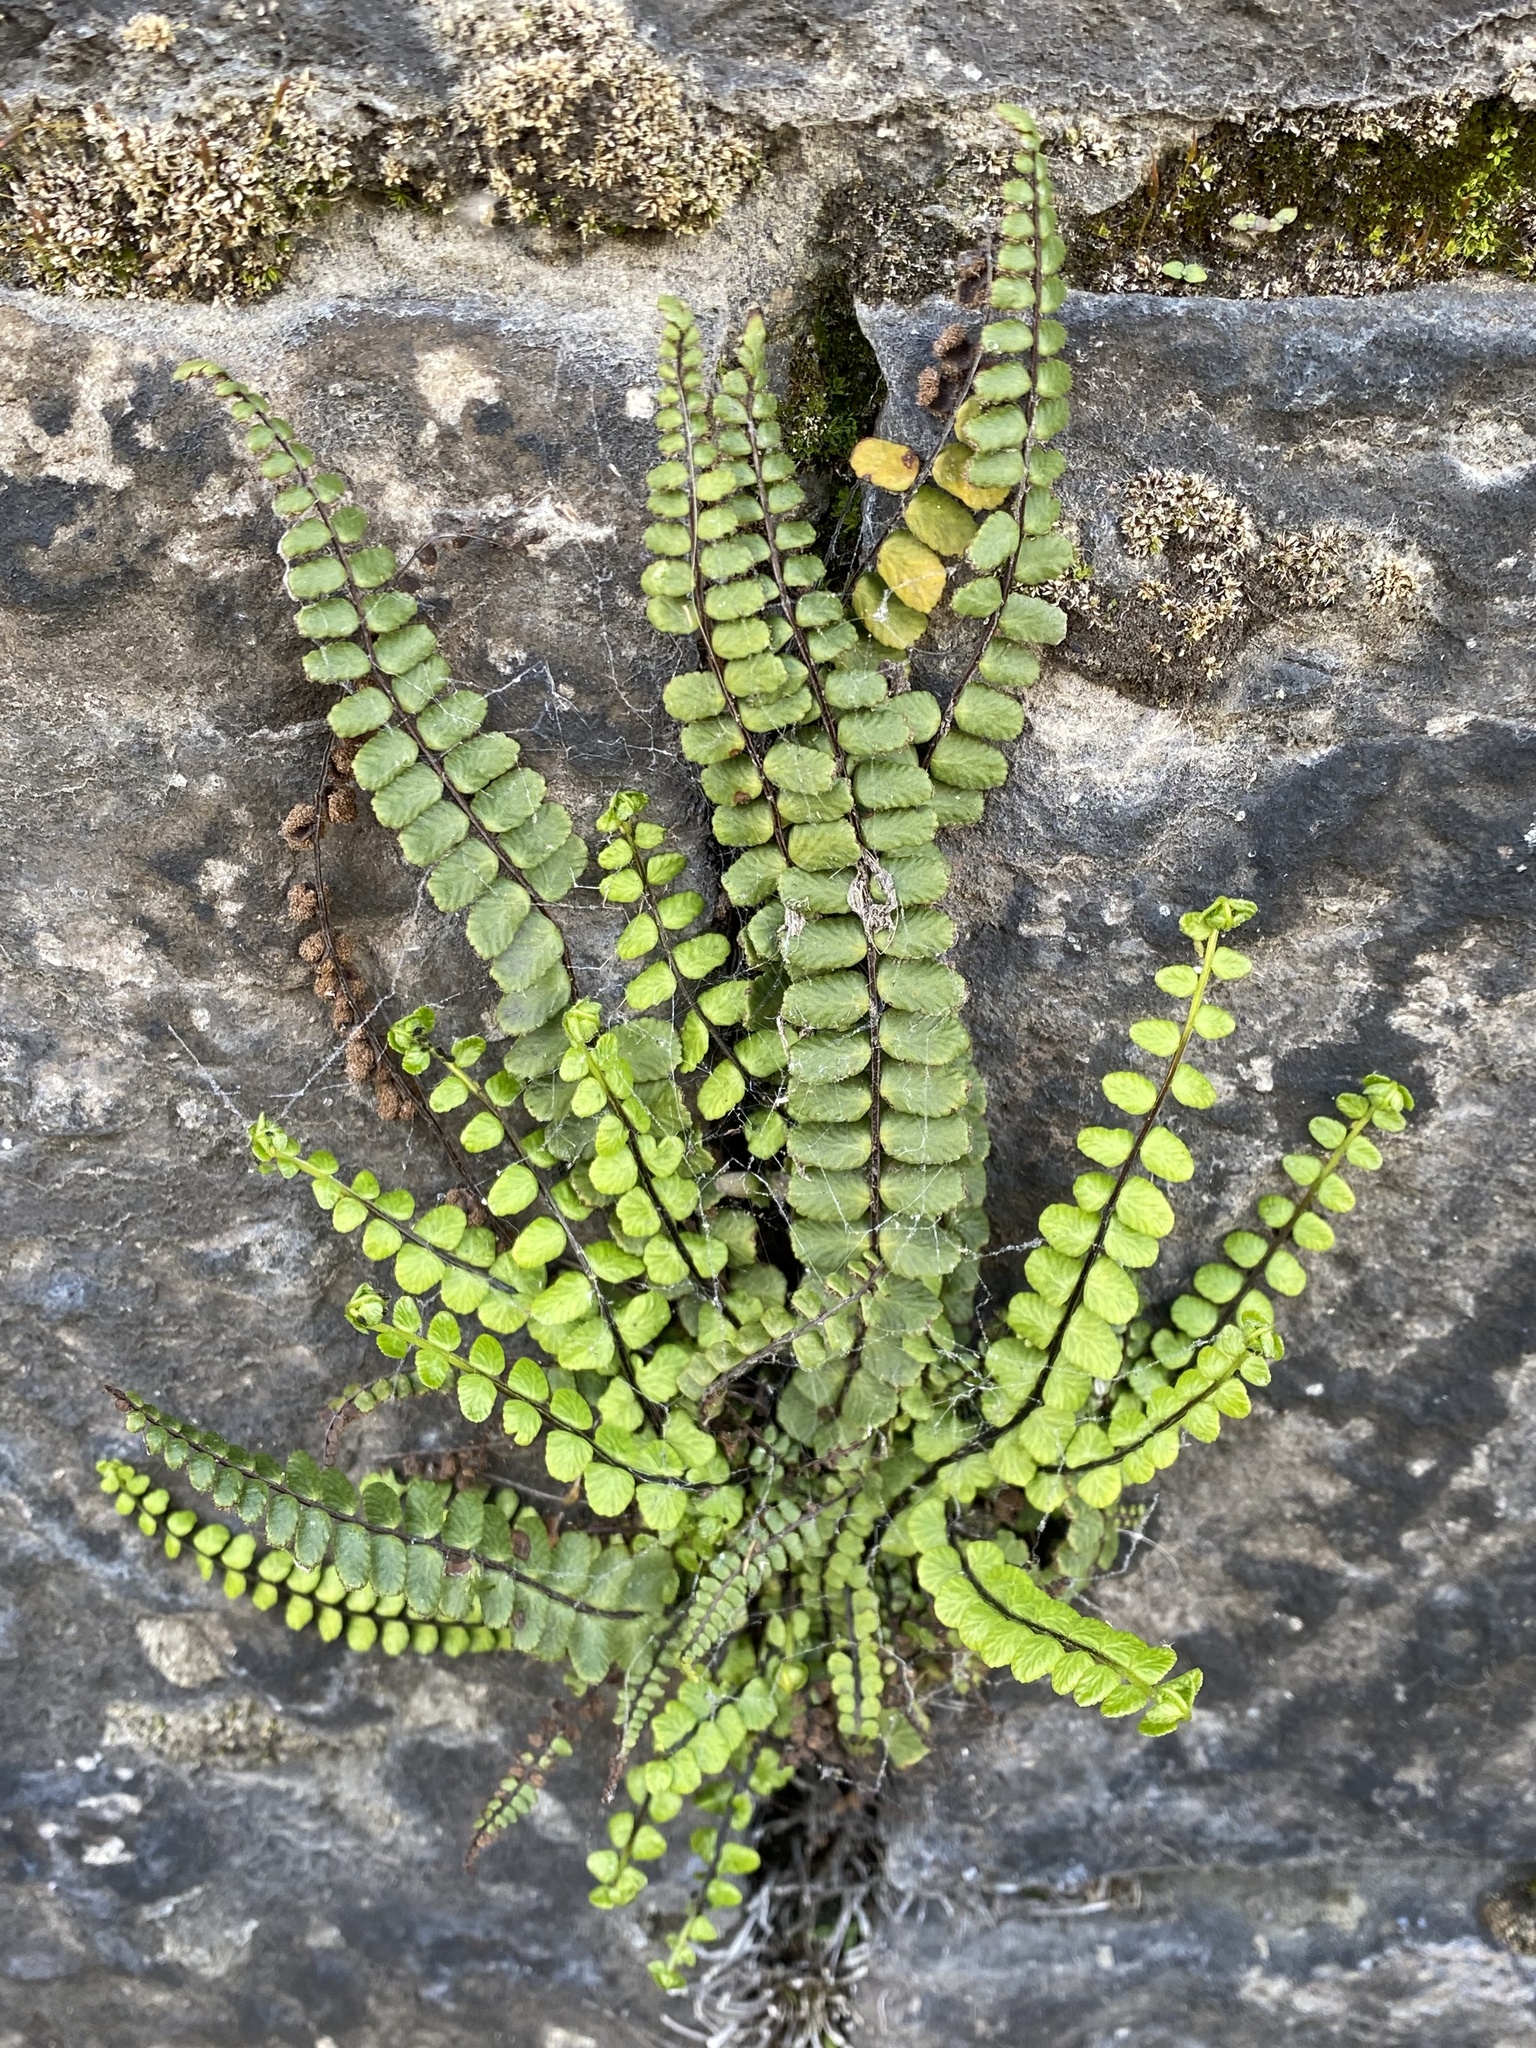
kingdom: Plantae
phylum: Tracheophyta
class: Polypodiopsida
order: Polypodiales
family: Aspleniaceae
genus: Asplenium
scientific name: Asplenium trichomanes
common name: Maidenhair spleenwort
